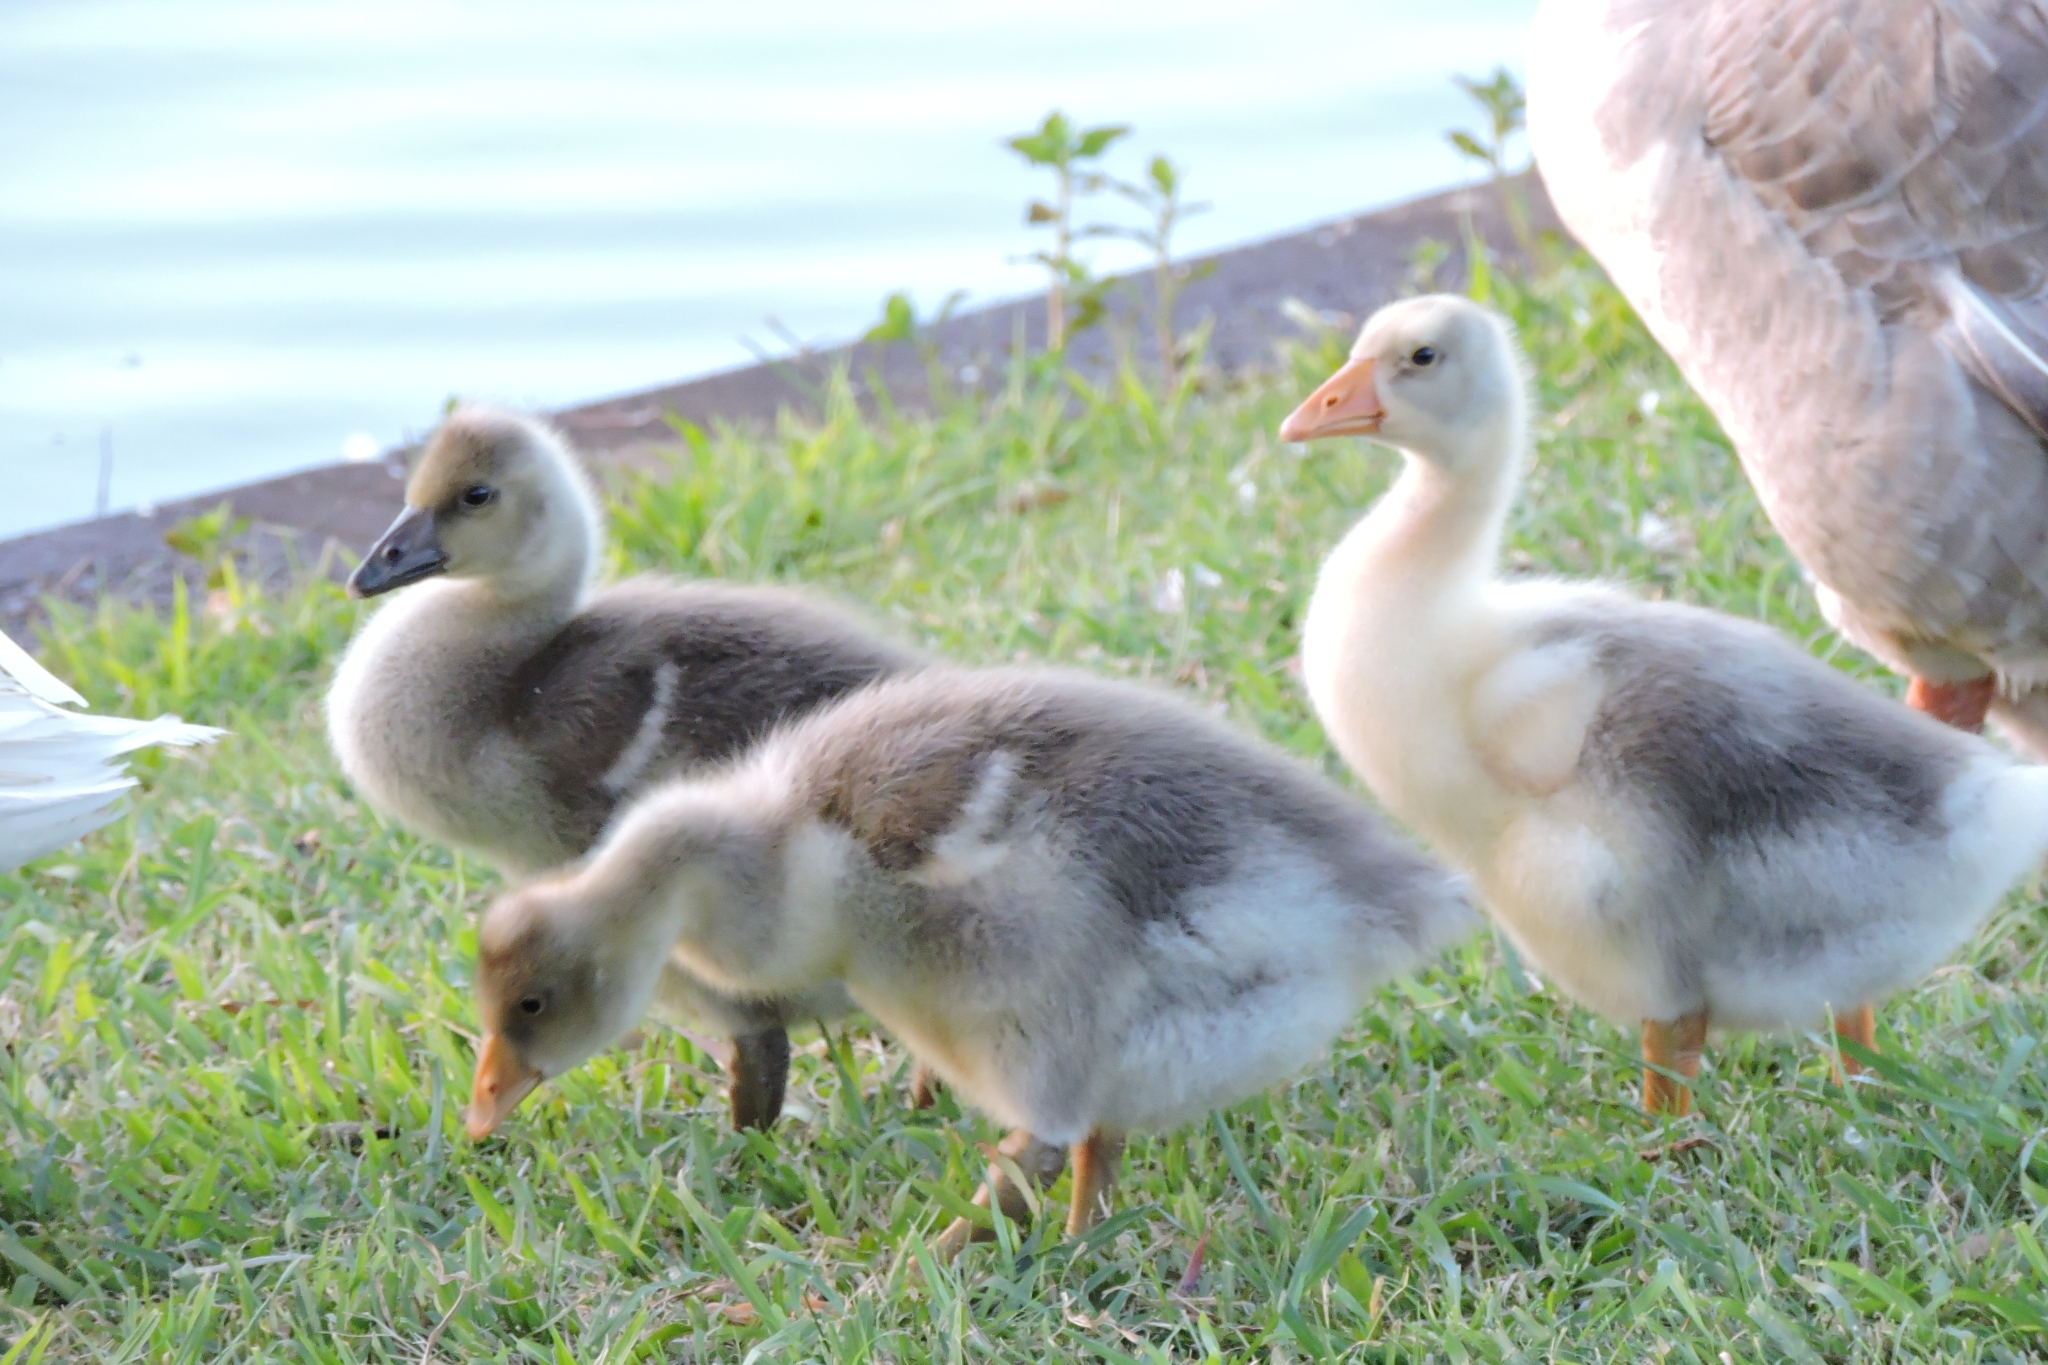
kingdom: Animalia
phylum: Chordata
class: Aves
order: Anseriformes
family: Anatidae
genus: Anser
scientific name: Anser
